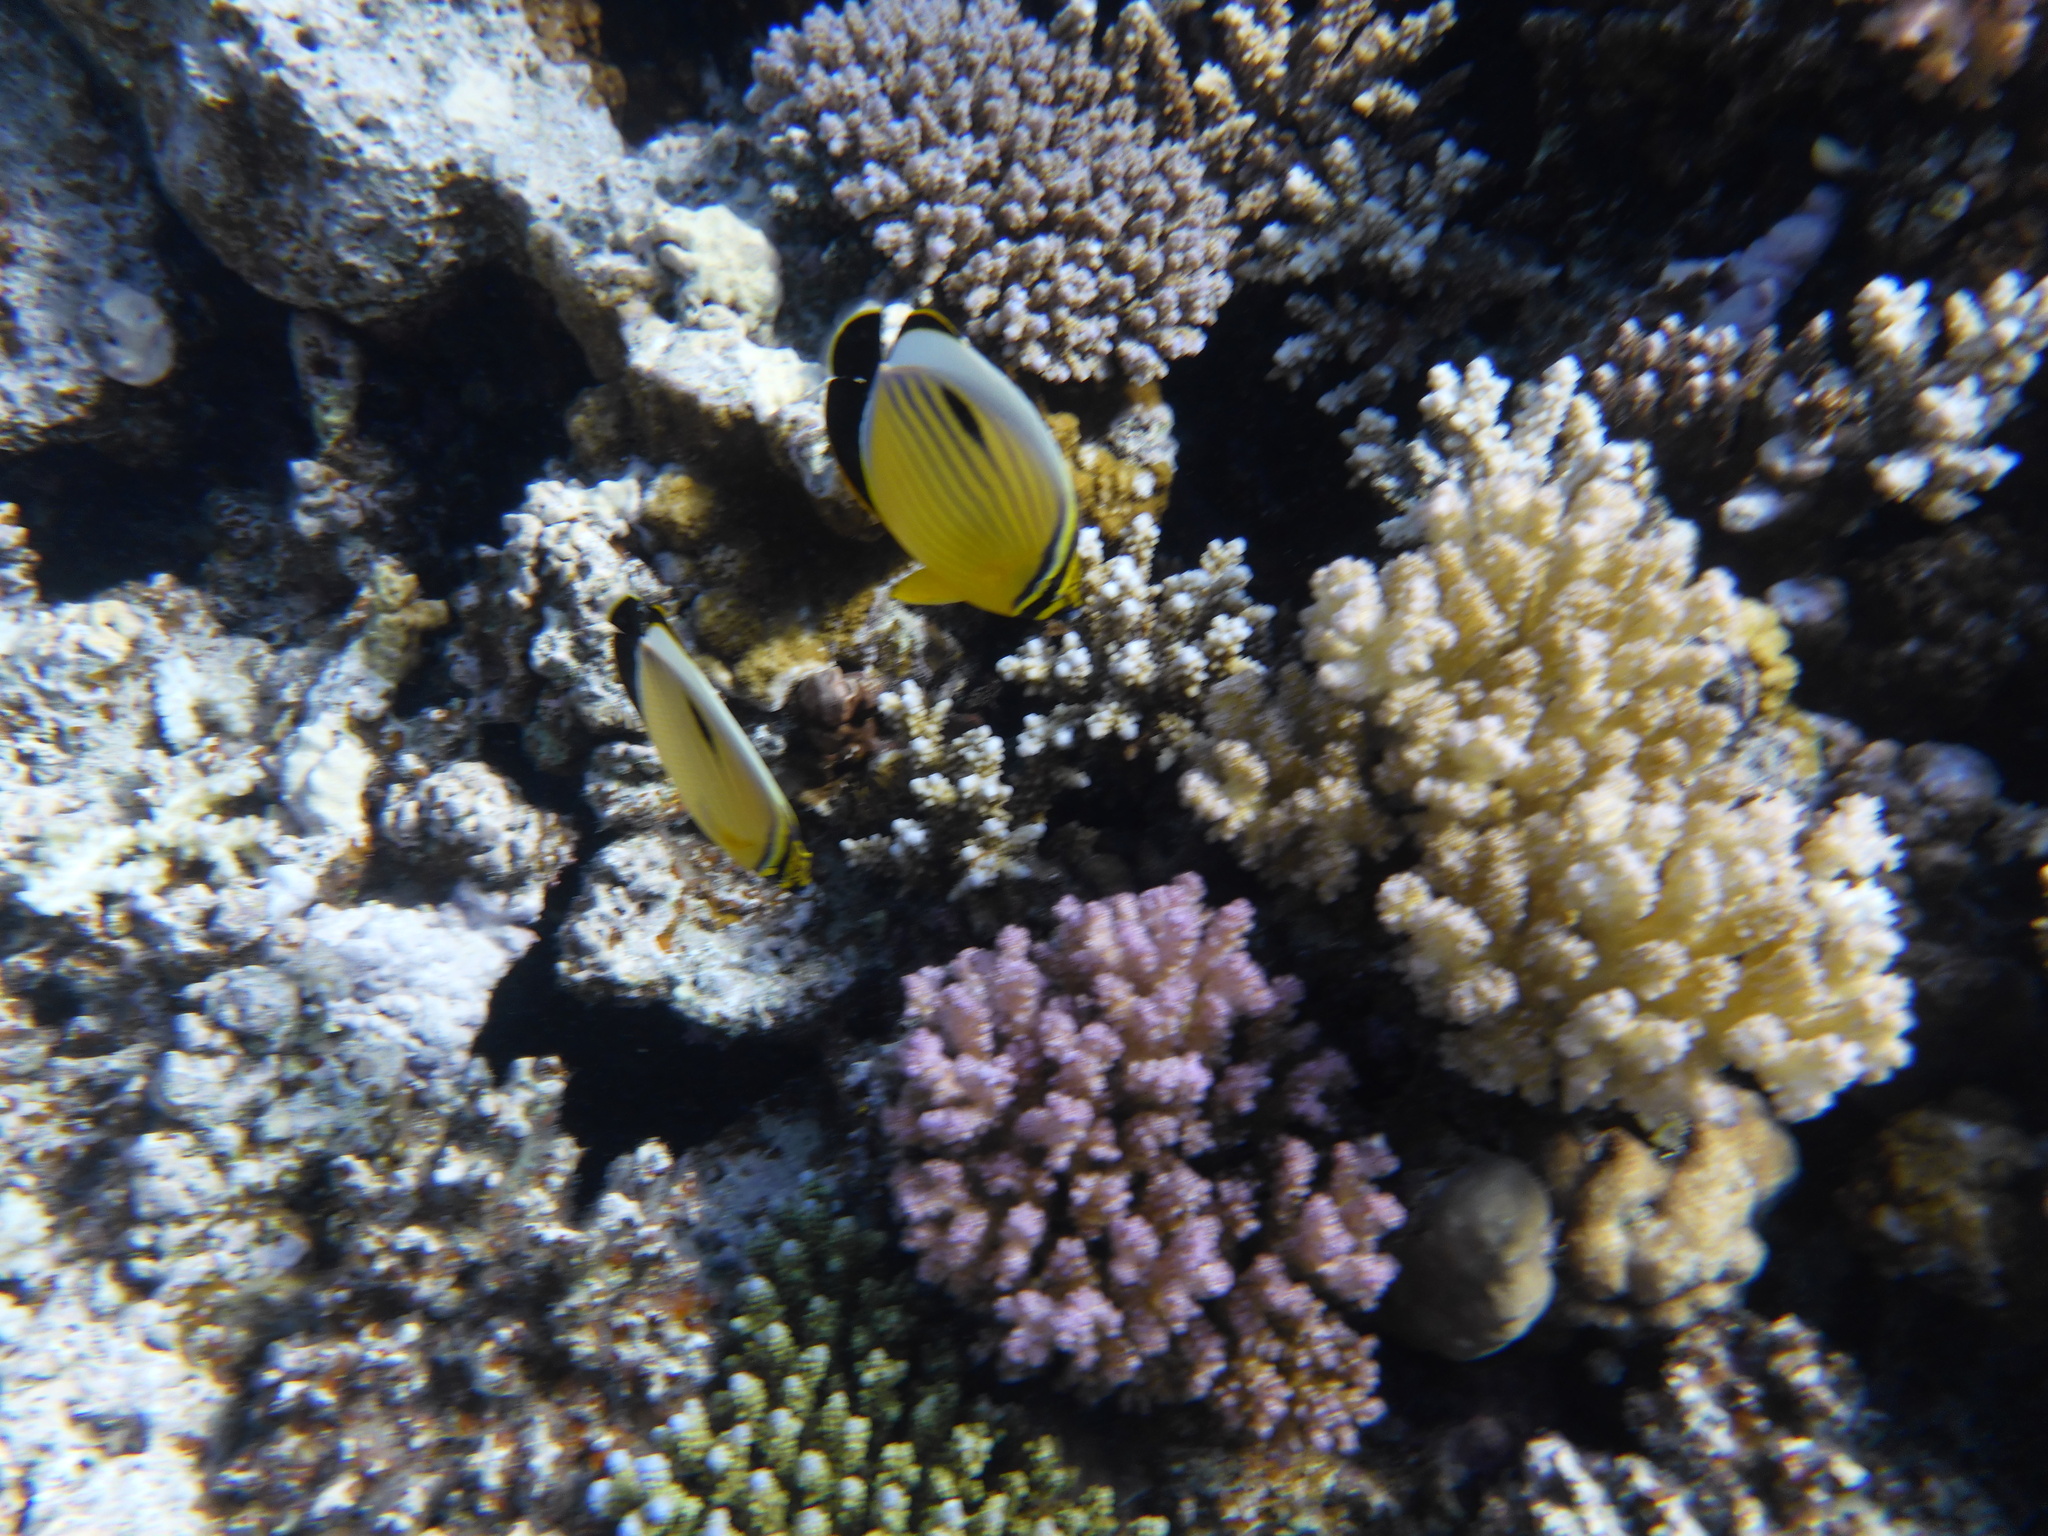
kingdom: Animalia
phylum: Chordata
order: Perciformes
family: Chaetodontidae
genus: Chaetodon
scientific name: Chaetodon austriacus
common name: Exquisite butterflyfish
